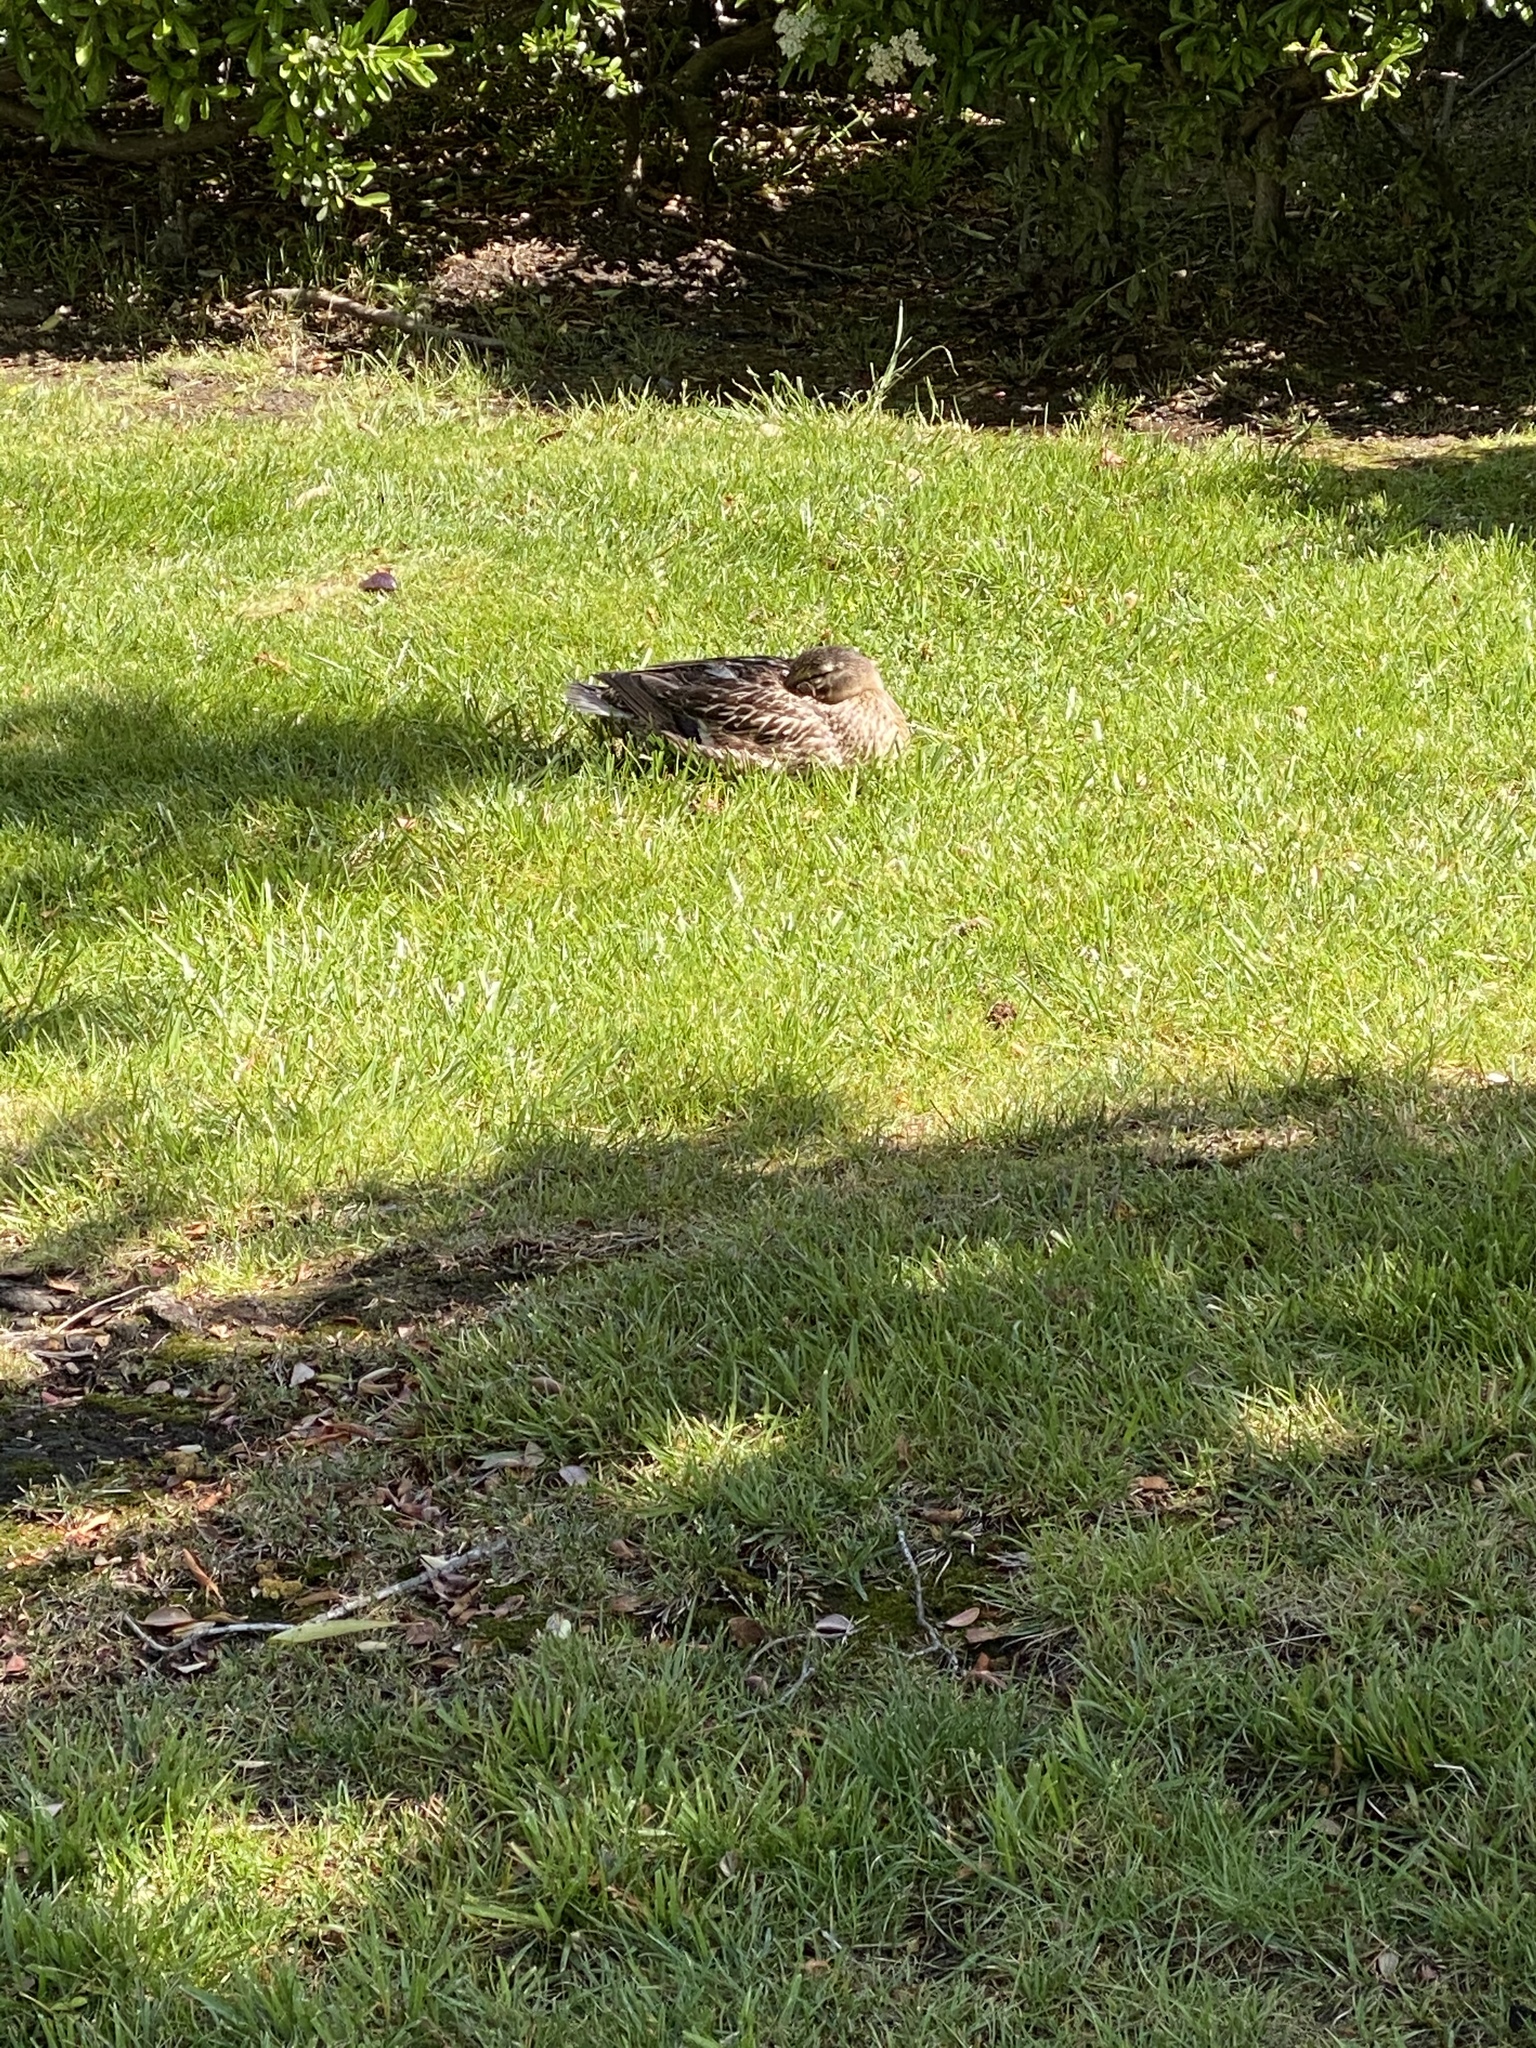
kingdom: Animalia
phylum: Chordata
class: Aves
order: Anseriformes
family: Anatidae
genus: Anas
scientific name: Anas platyrhynchos
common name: Mallard
